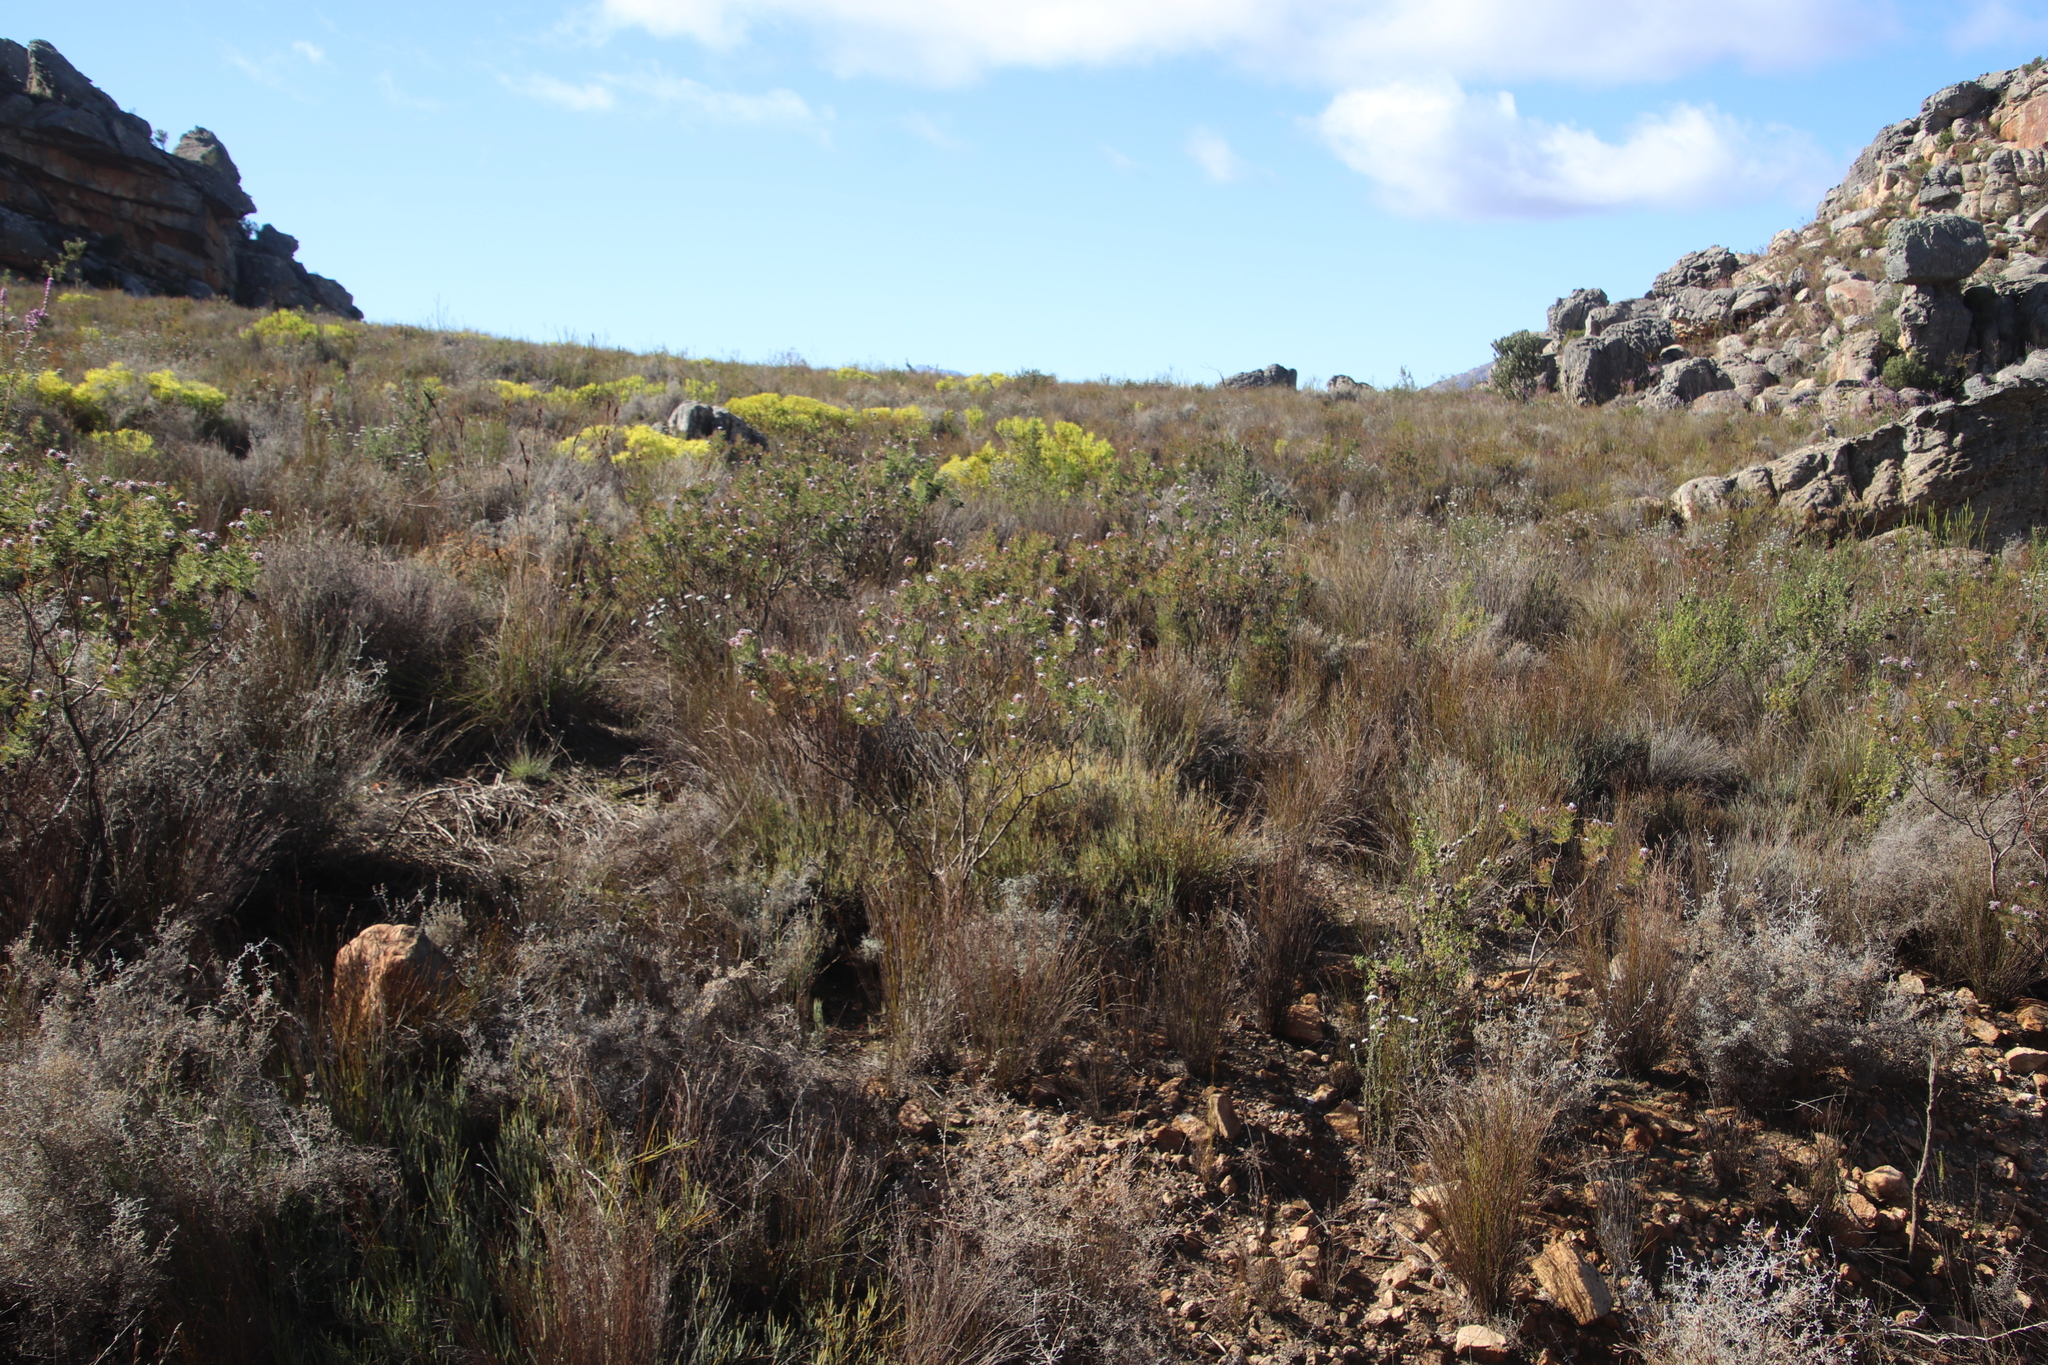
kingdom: Plantae
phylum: Tracheophyta
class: Magnoliopsida
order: Proteales
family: Proteaceae
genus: Serruria
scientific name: Serruria pedunculata
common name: Fan-leaf spiderhead
